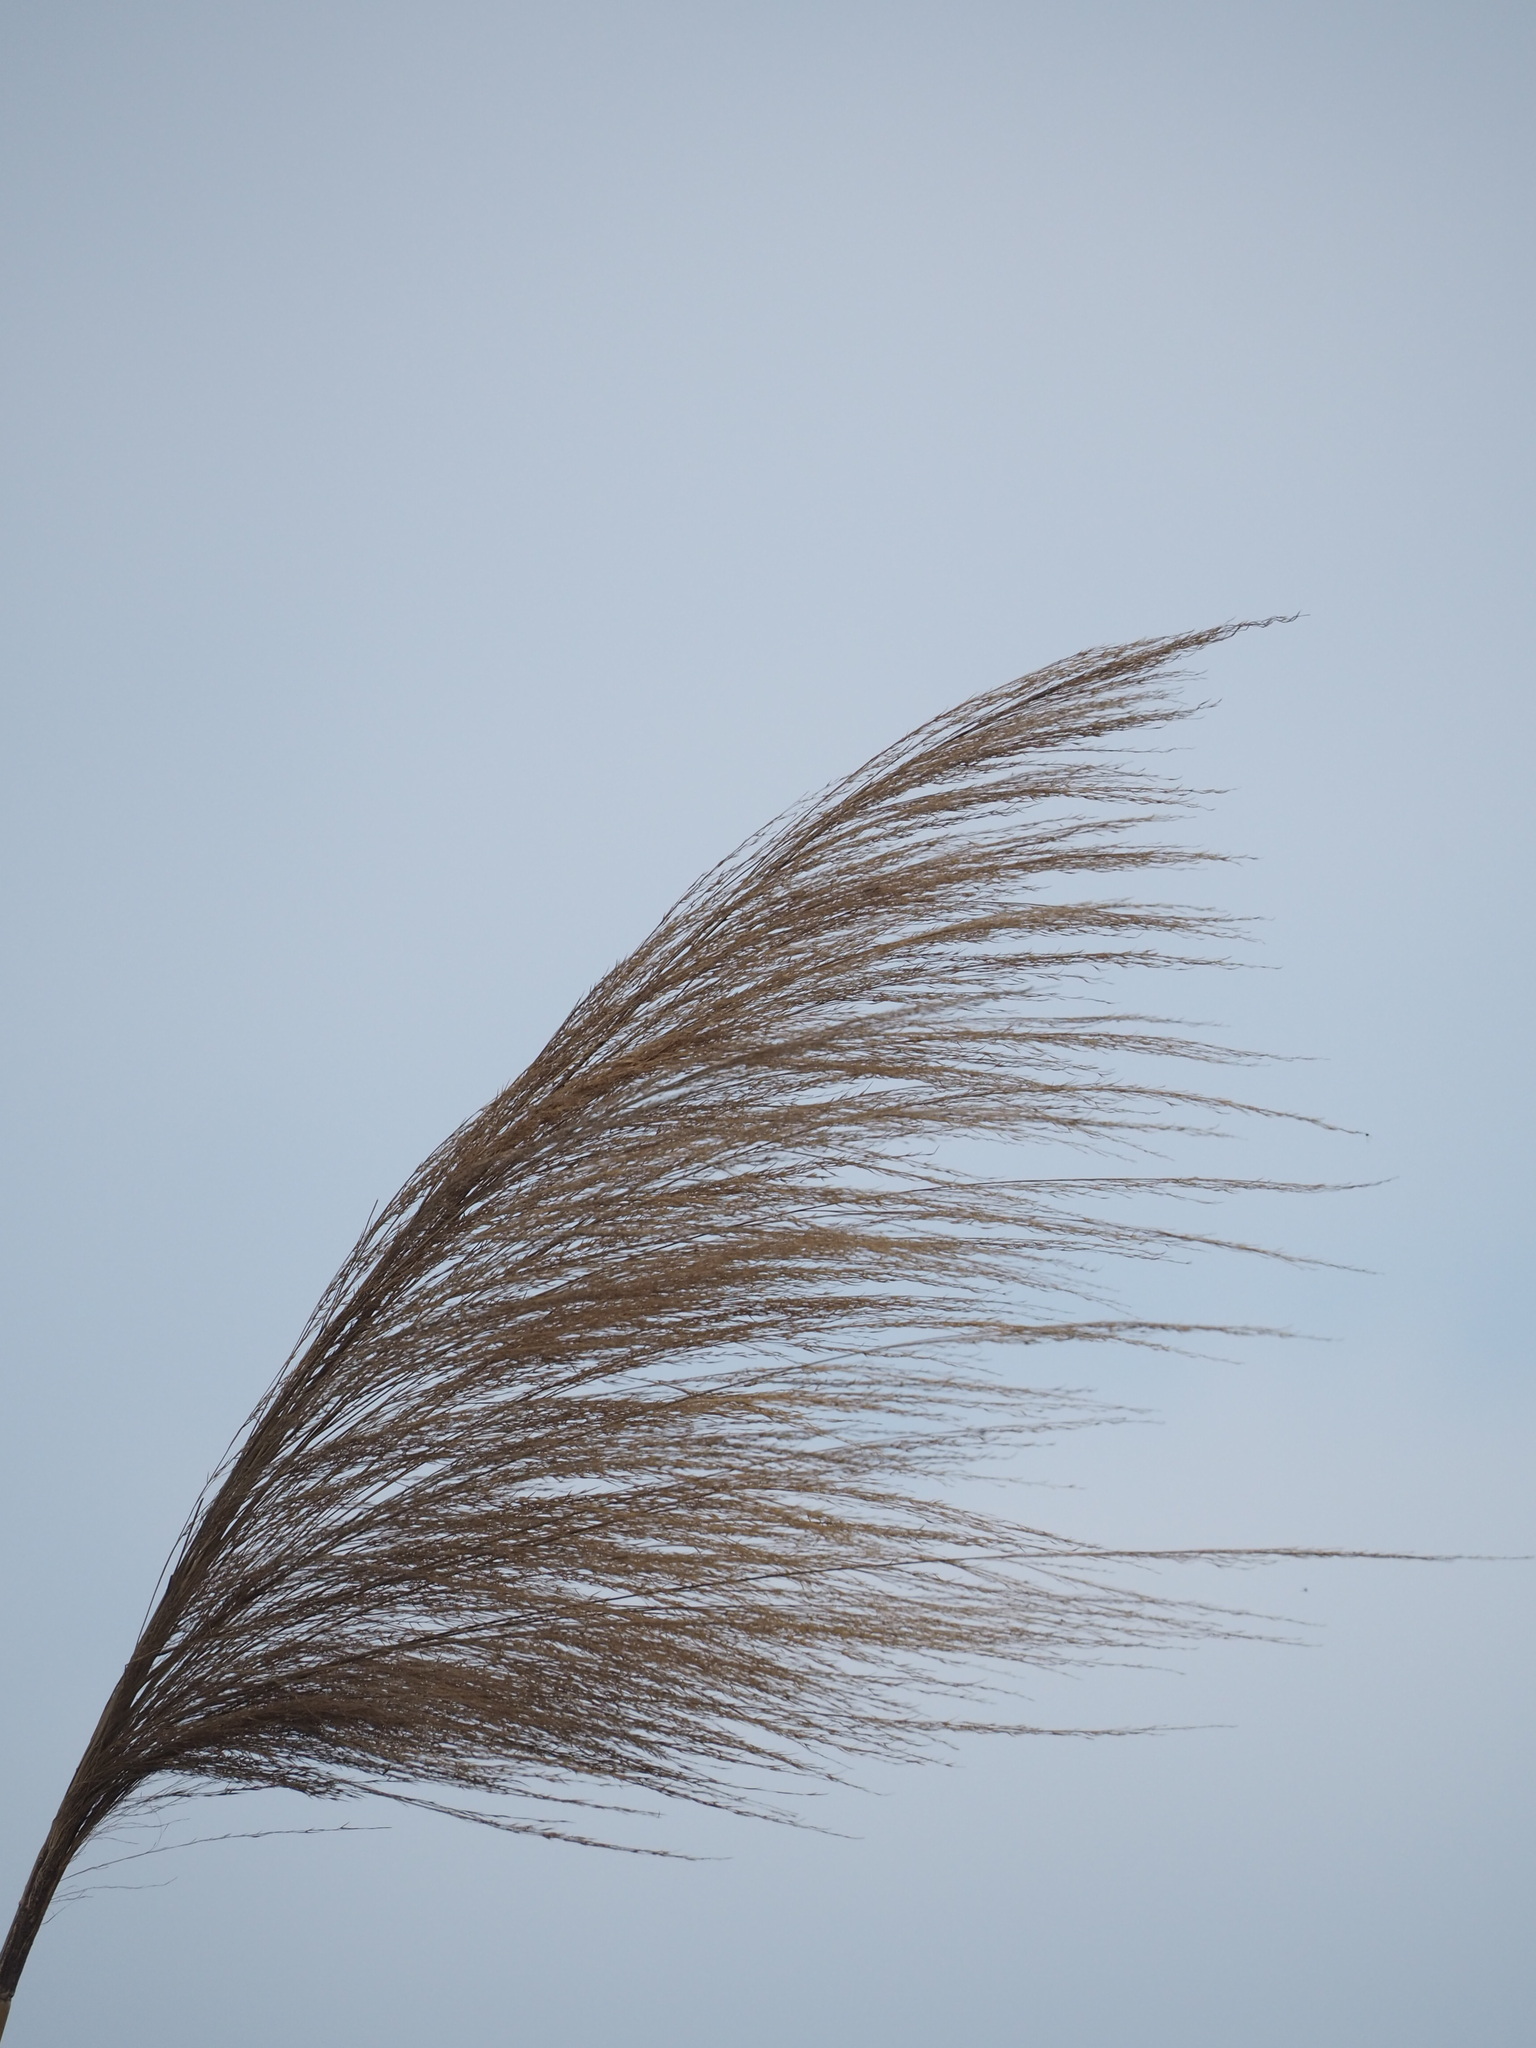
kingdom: Plantae
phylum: Tracheophyta
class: Liliopsida
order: Poales
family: Poaceae
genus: Phragmites
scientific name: Phragmites karka
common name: Tropical reed
